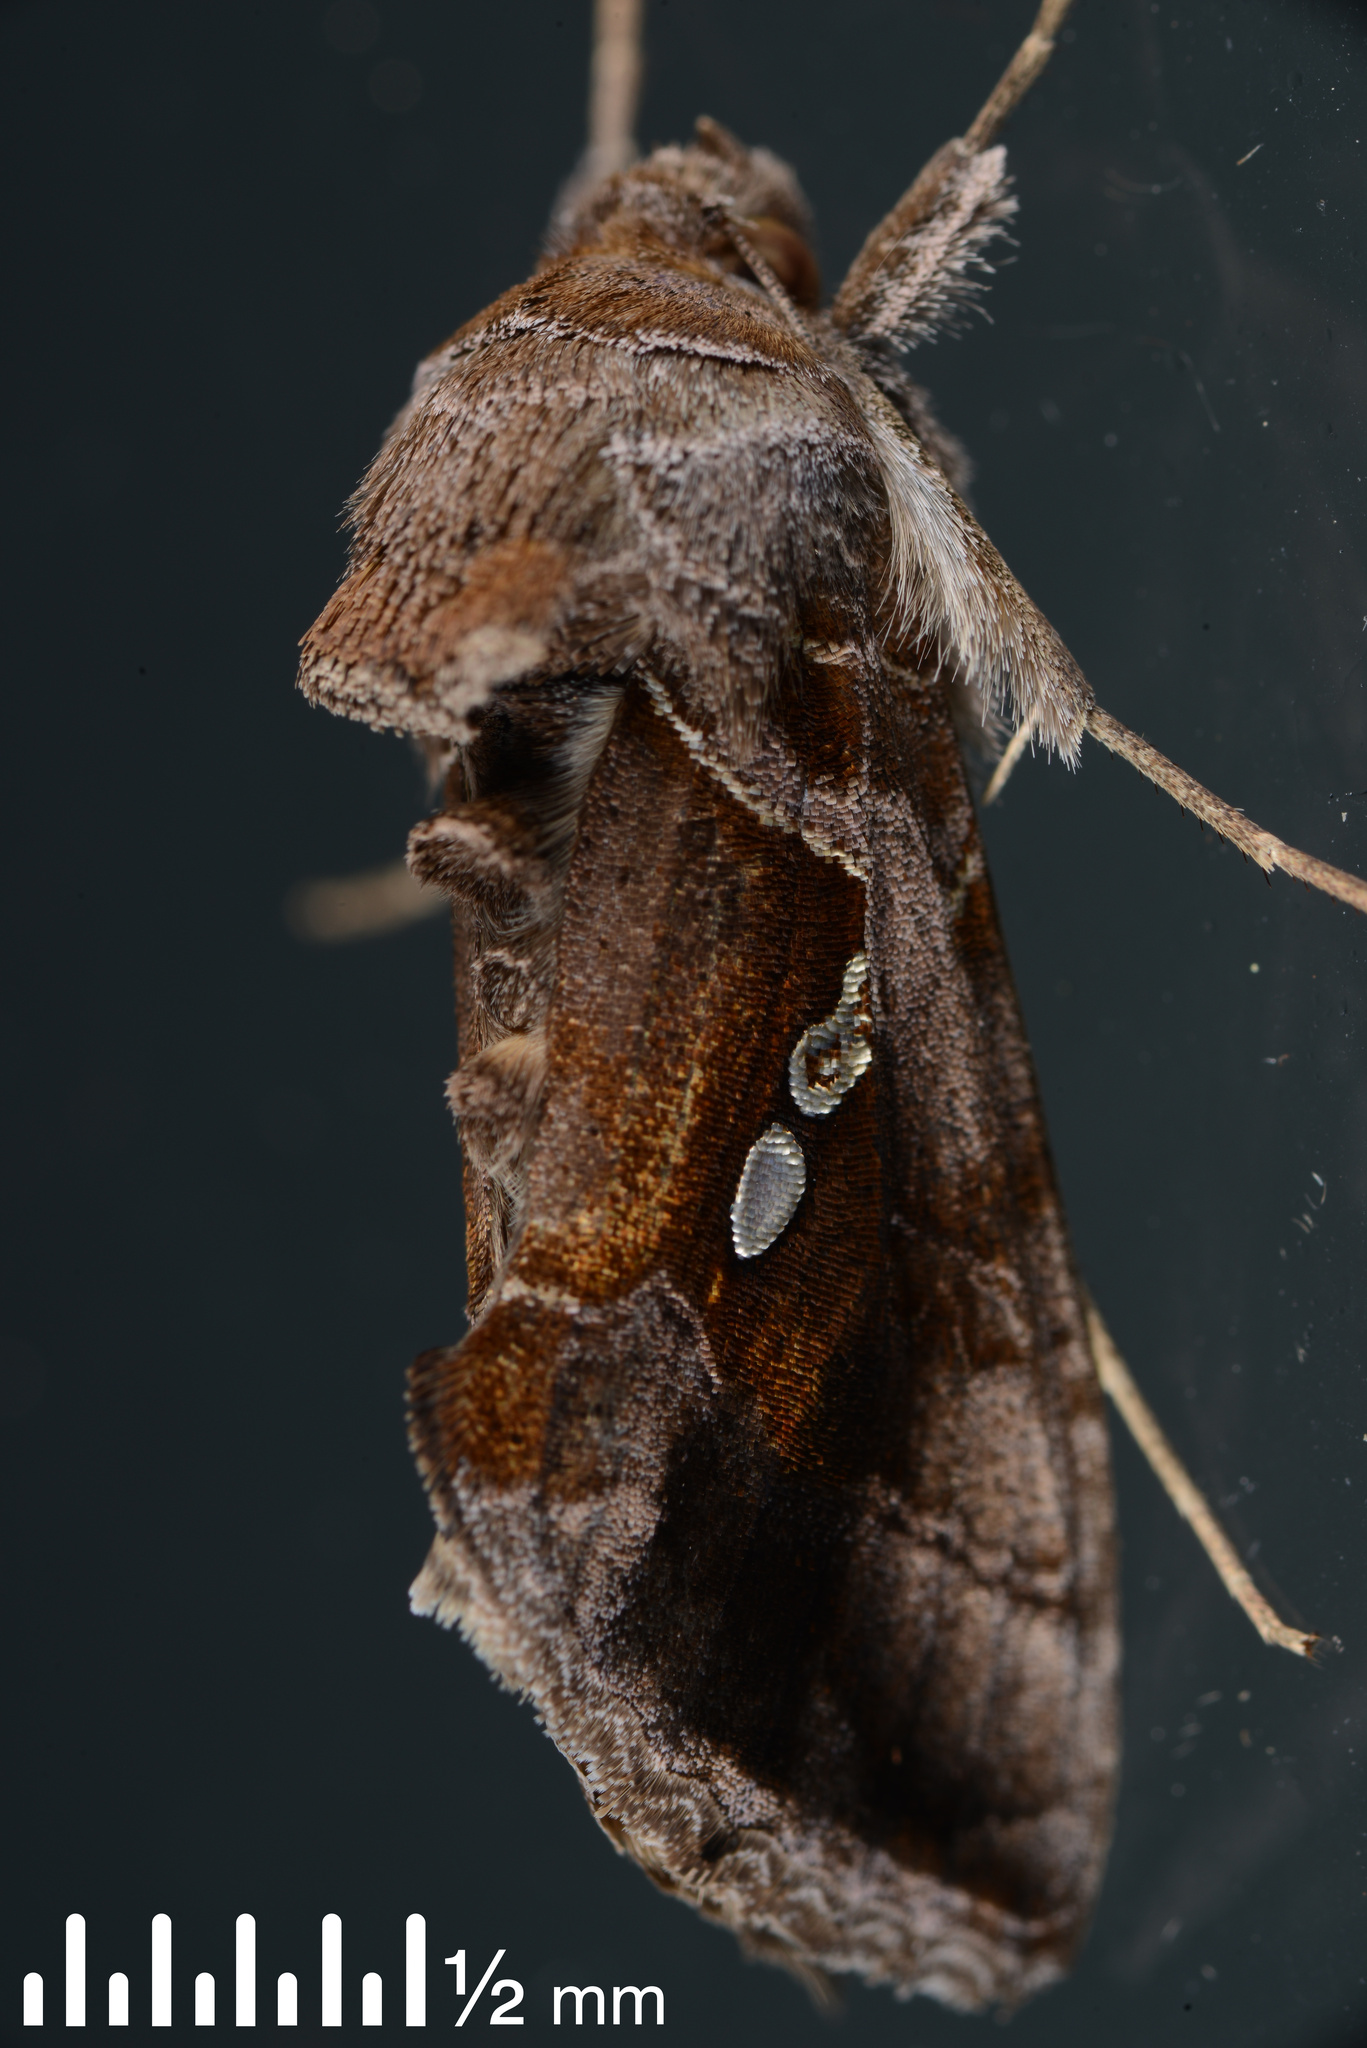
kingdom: Animalia
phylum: Arthropoda
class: Insecta
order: Lepidoptera
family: Noctuidae
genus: Chrysodeixis
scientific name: Chrysodeixis eriosoma
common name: Green garden looper
